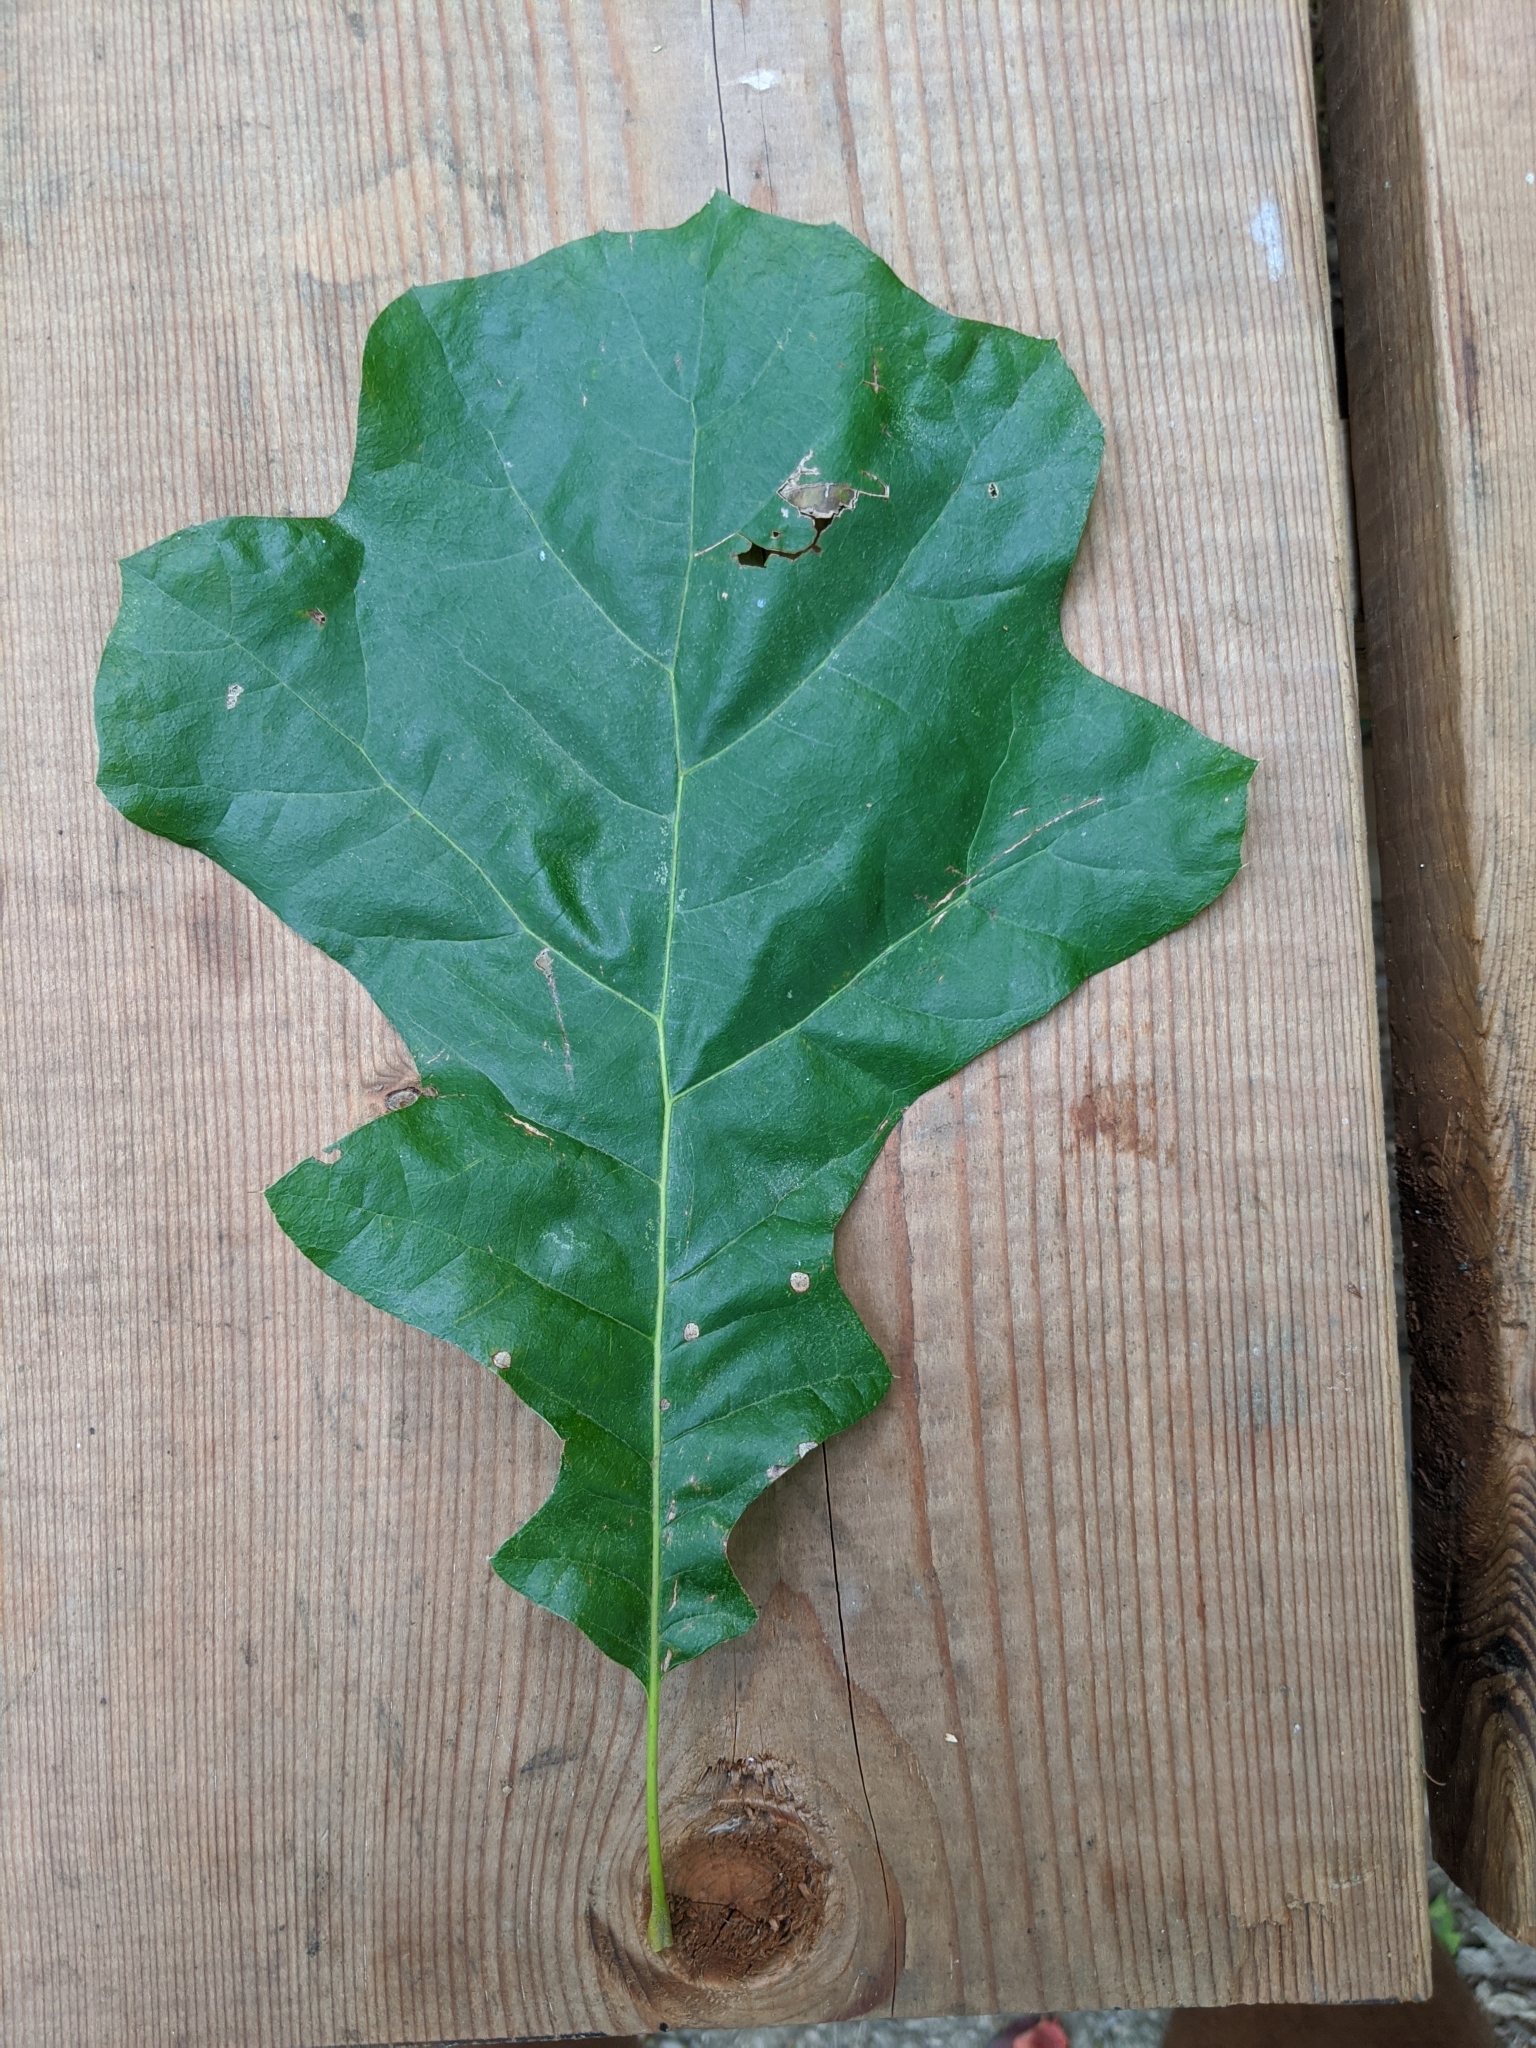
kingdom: Plantae
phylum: Tracheophyta
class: Magnoliopsida
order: Fagales
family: Fagaceae
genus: Quercus
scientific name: Quercus velutina
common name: Black oak
